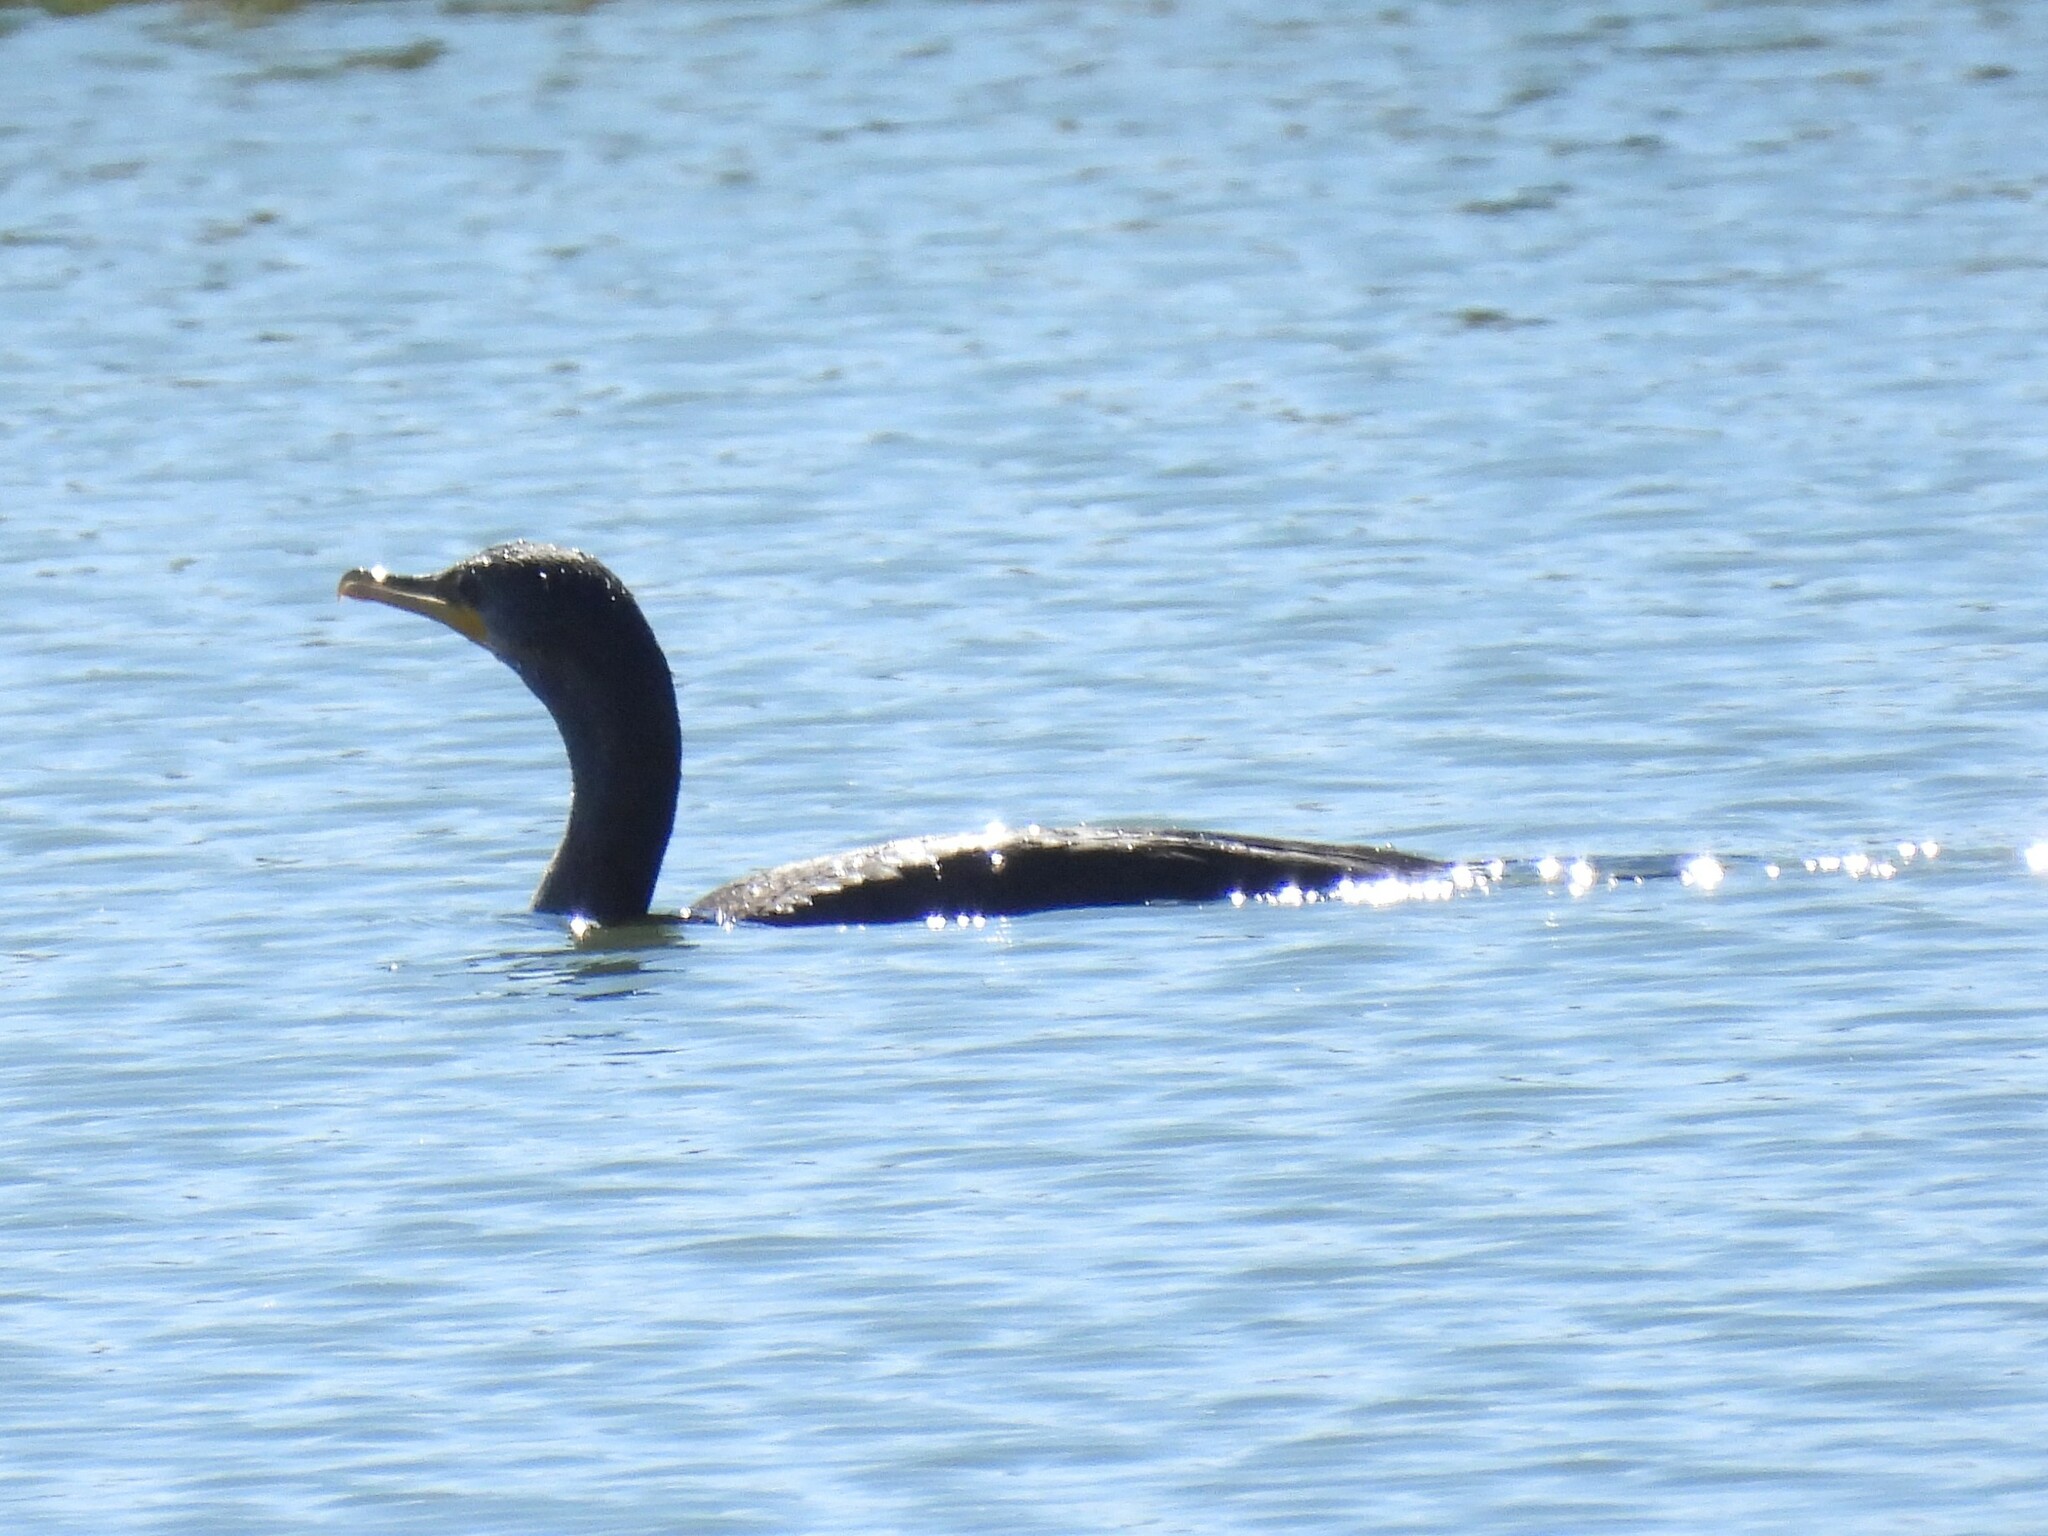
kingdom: Animalia
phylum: Chordata
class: Aves
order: Suliformes
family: Phalacrocoracidae
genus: Phalacrocorax
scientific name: Phalacrocorax auritus
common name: Double-crested cormorant
